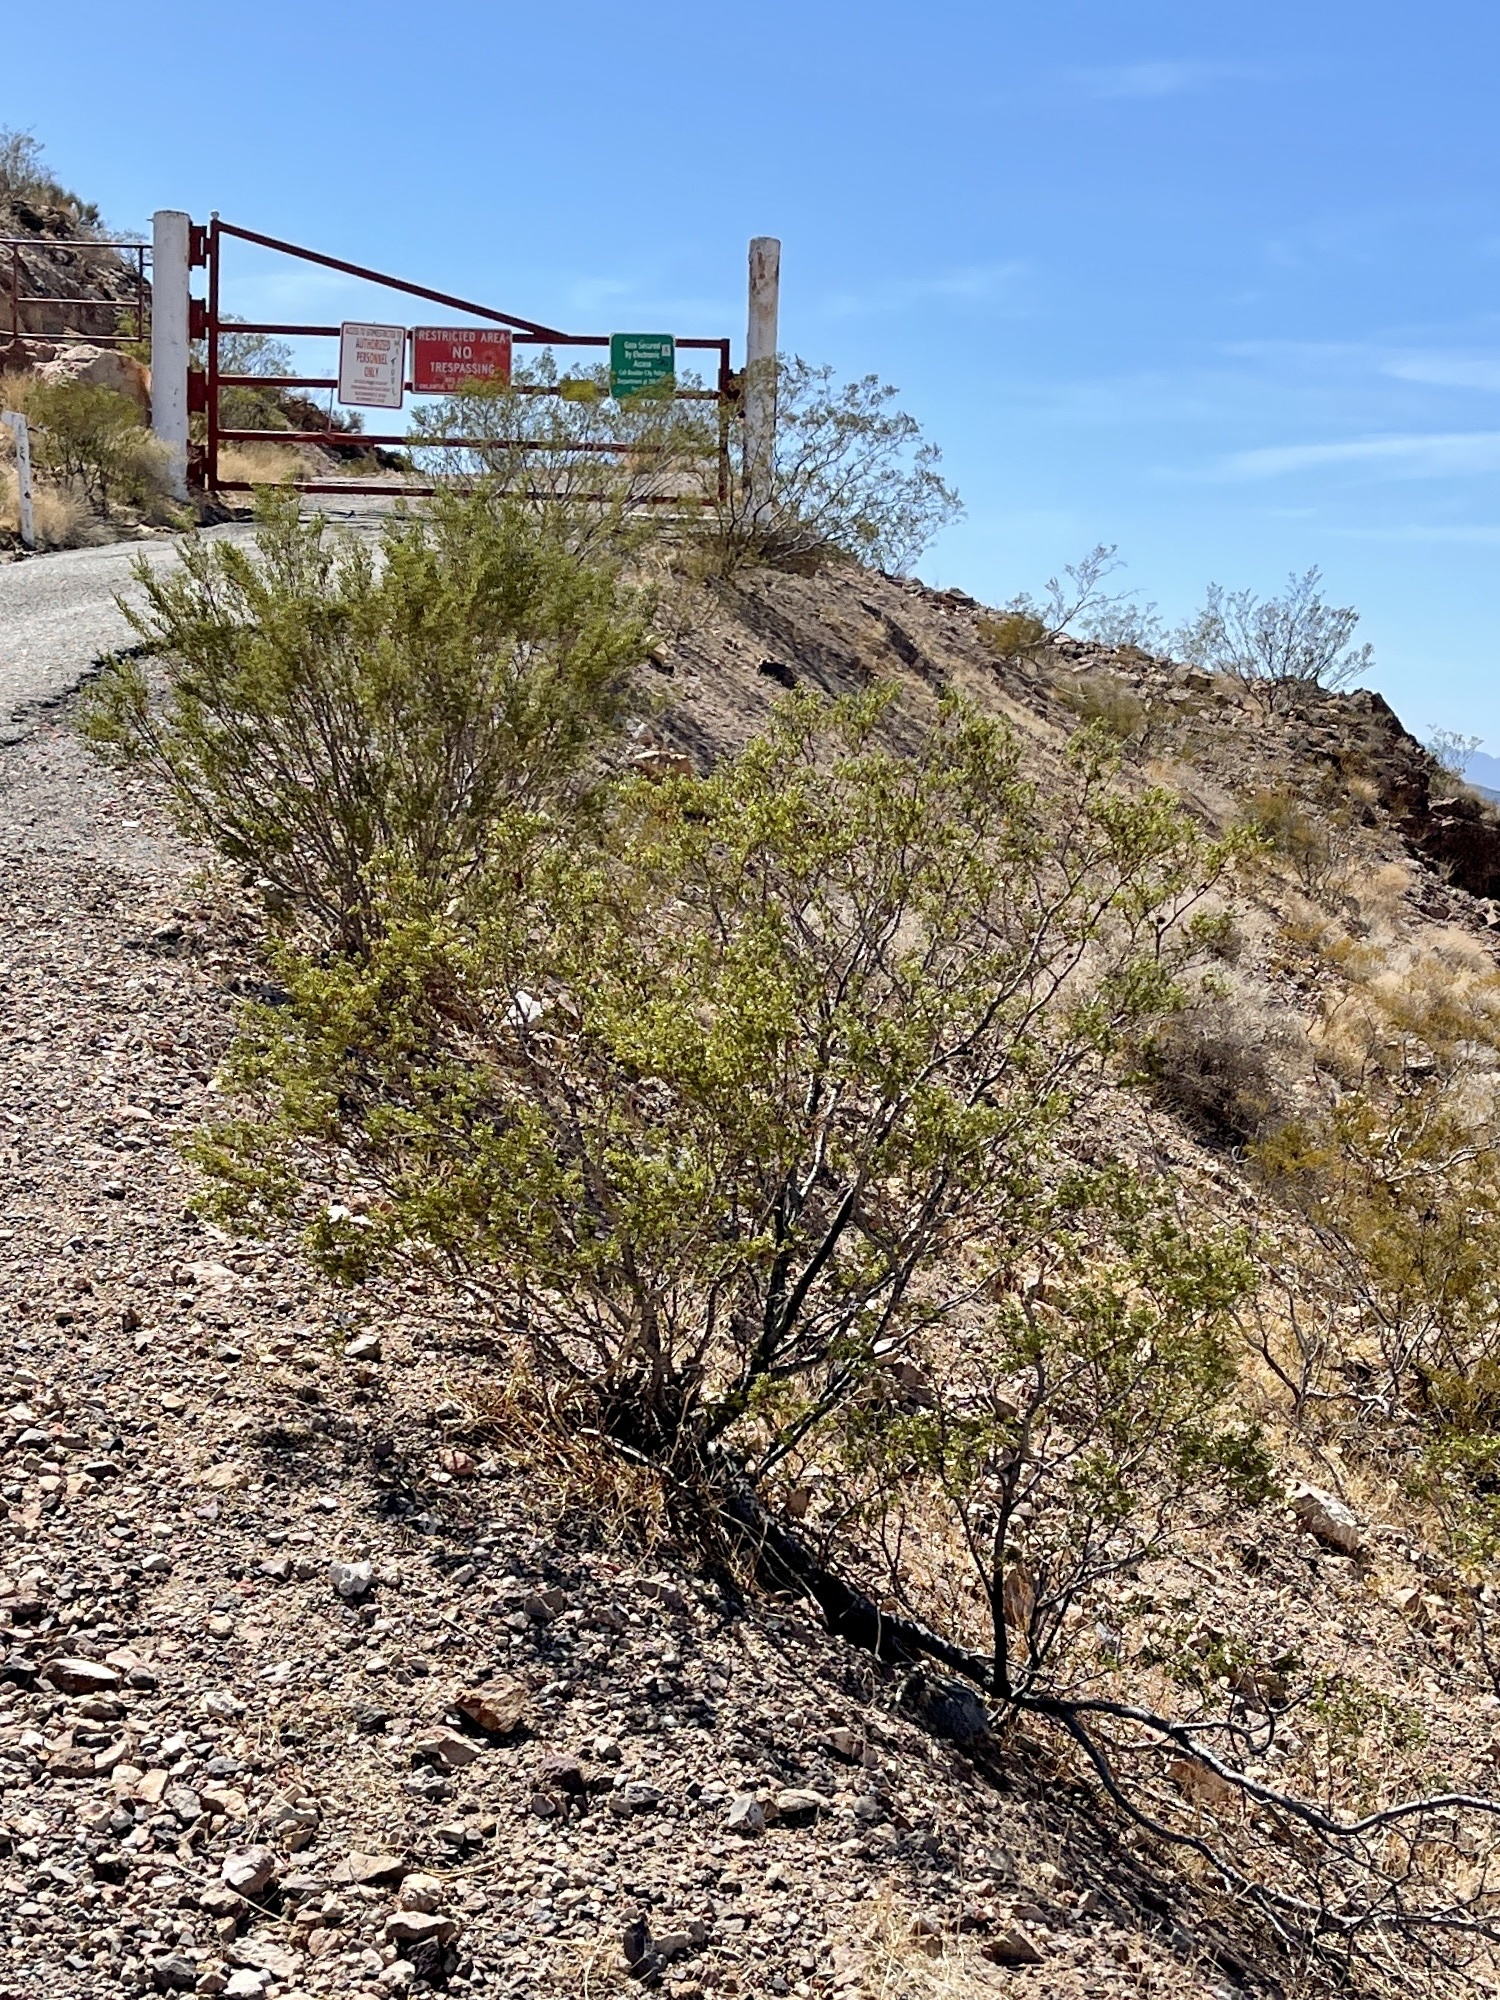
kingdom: Plantae
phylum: Tracheophyta
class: Magnoliopsida
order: Zygophyllales
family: Zygophyllaceae
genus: Larrea
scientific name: Larrea tridentata
